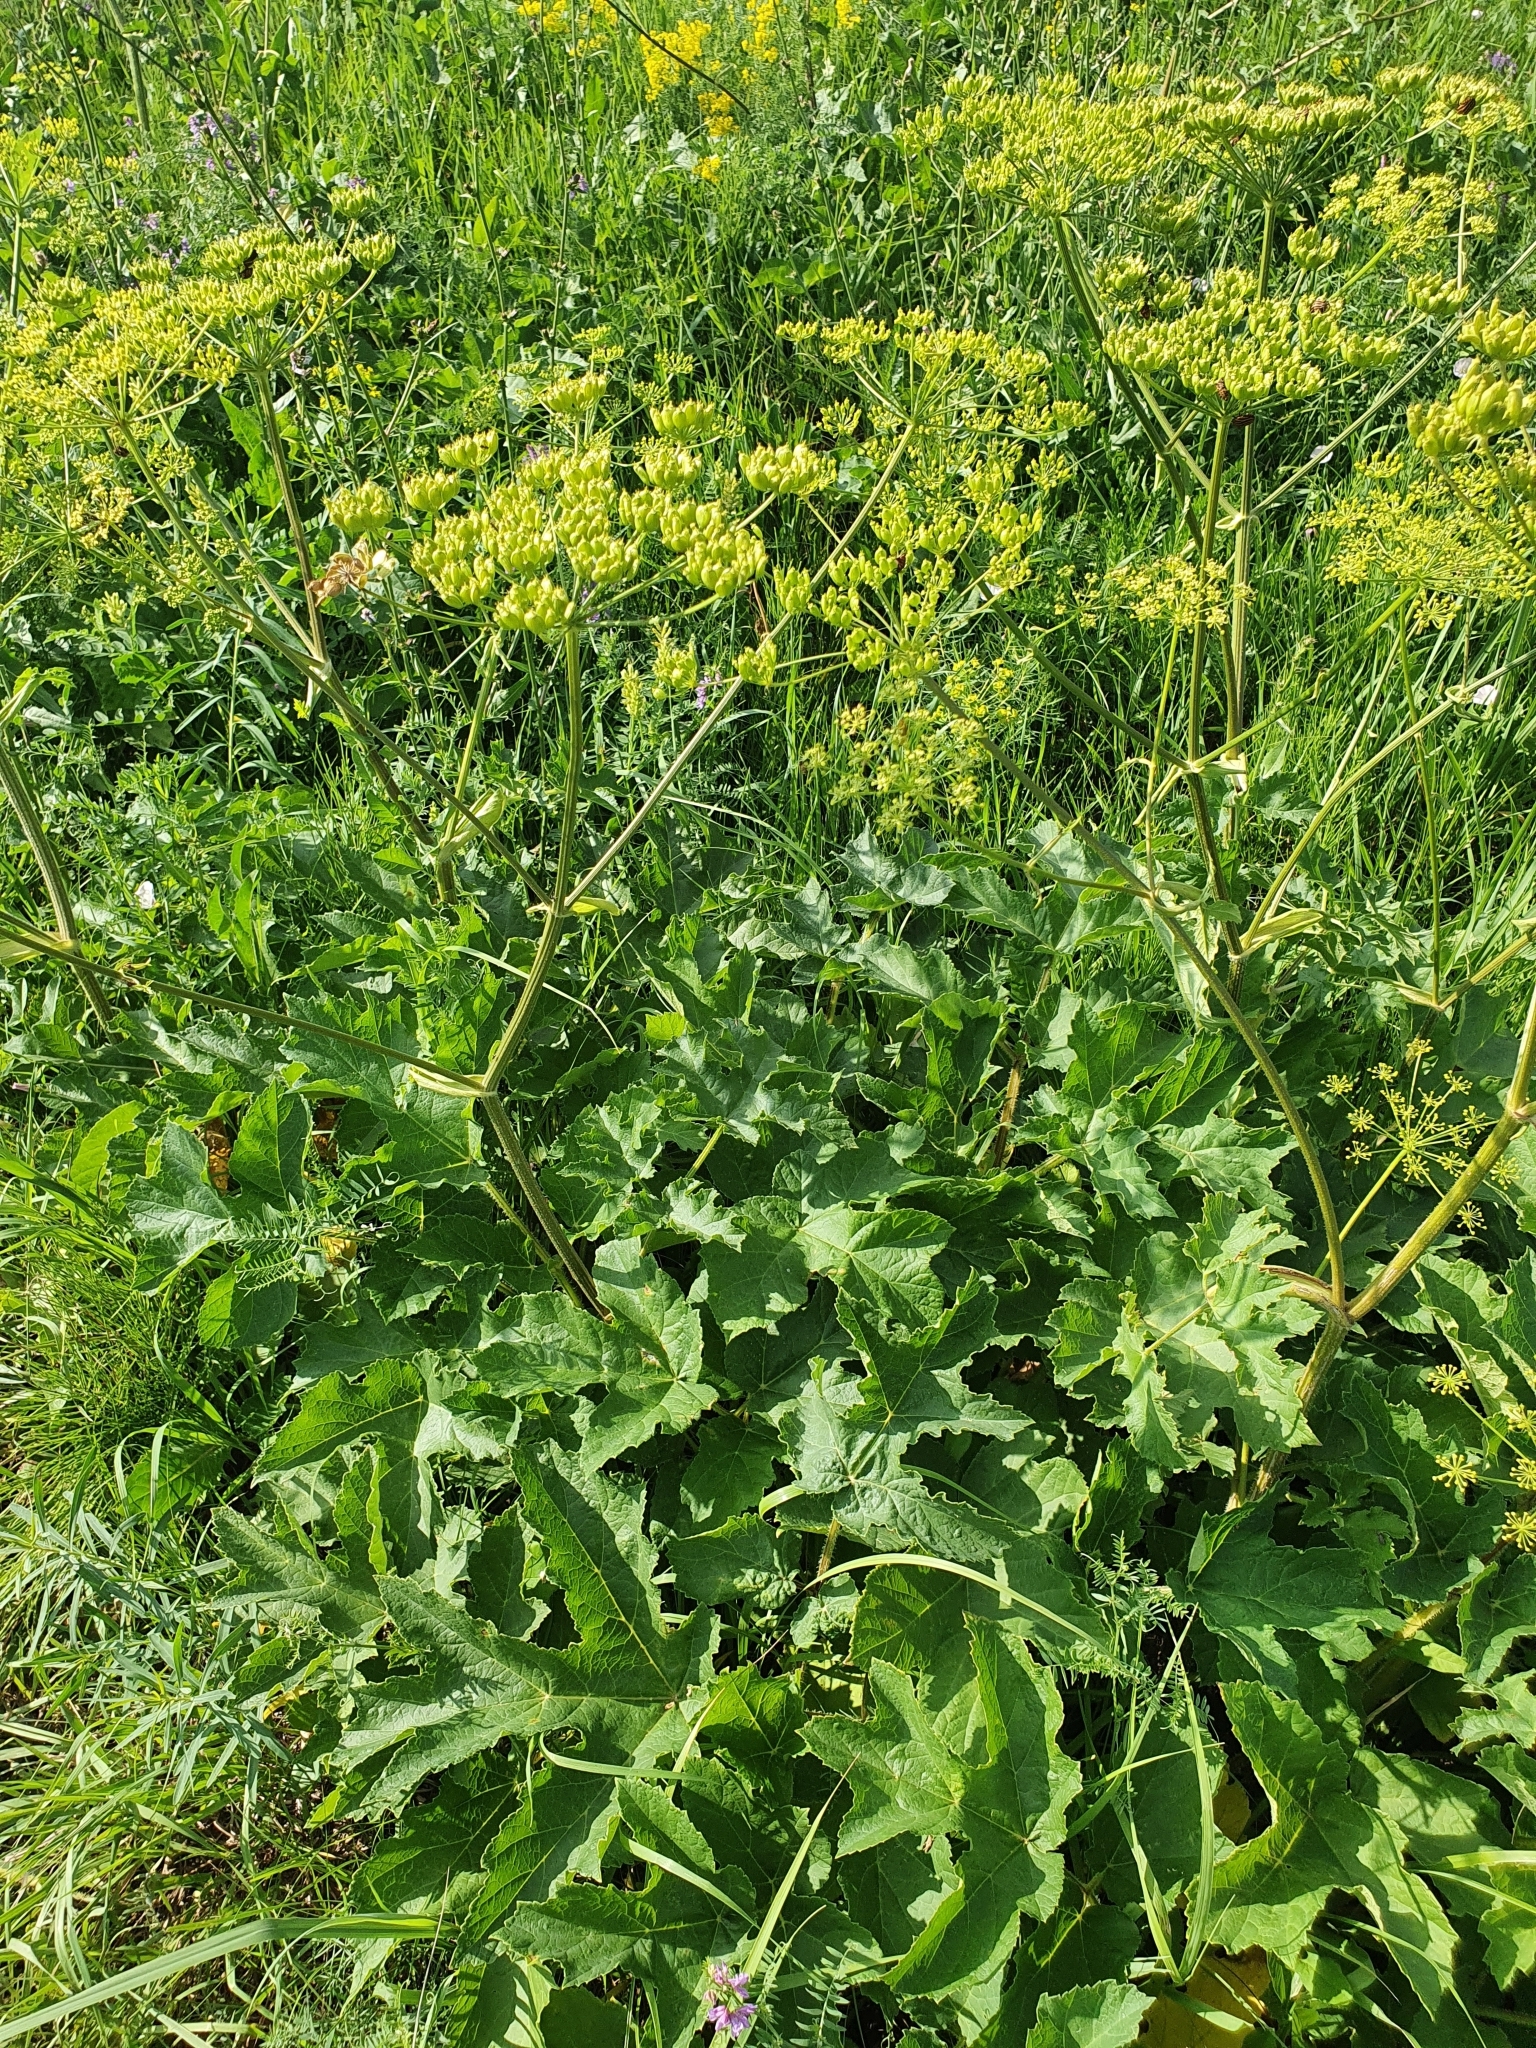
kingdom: Plantae
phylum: Tracheophyta
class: Magnoliopsida
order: Apiales
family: Apiaceae
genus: Heracleum
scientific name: Heracleum sphondylium
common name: Hogweed
